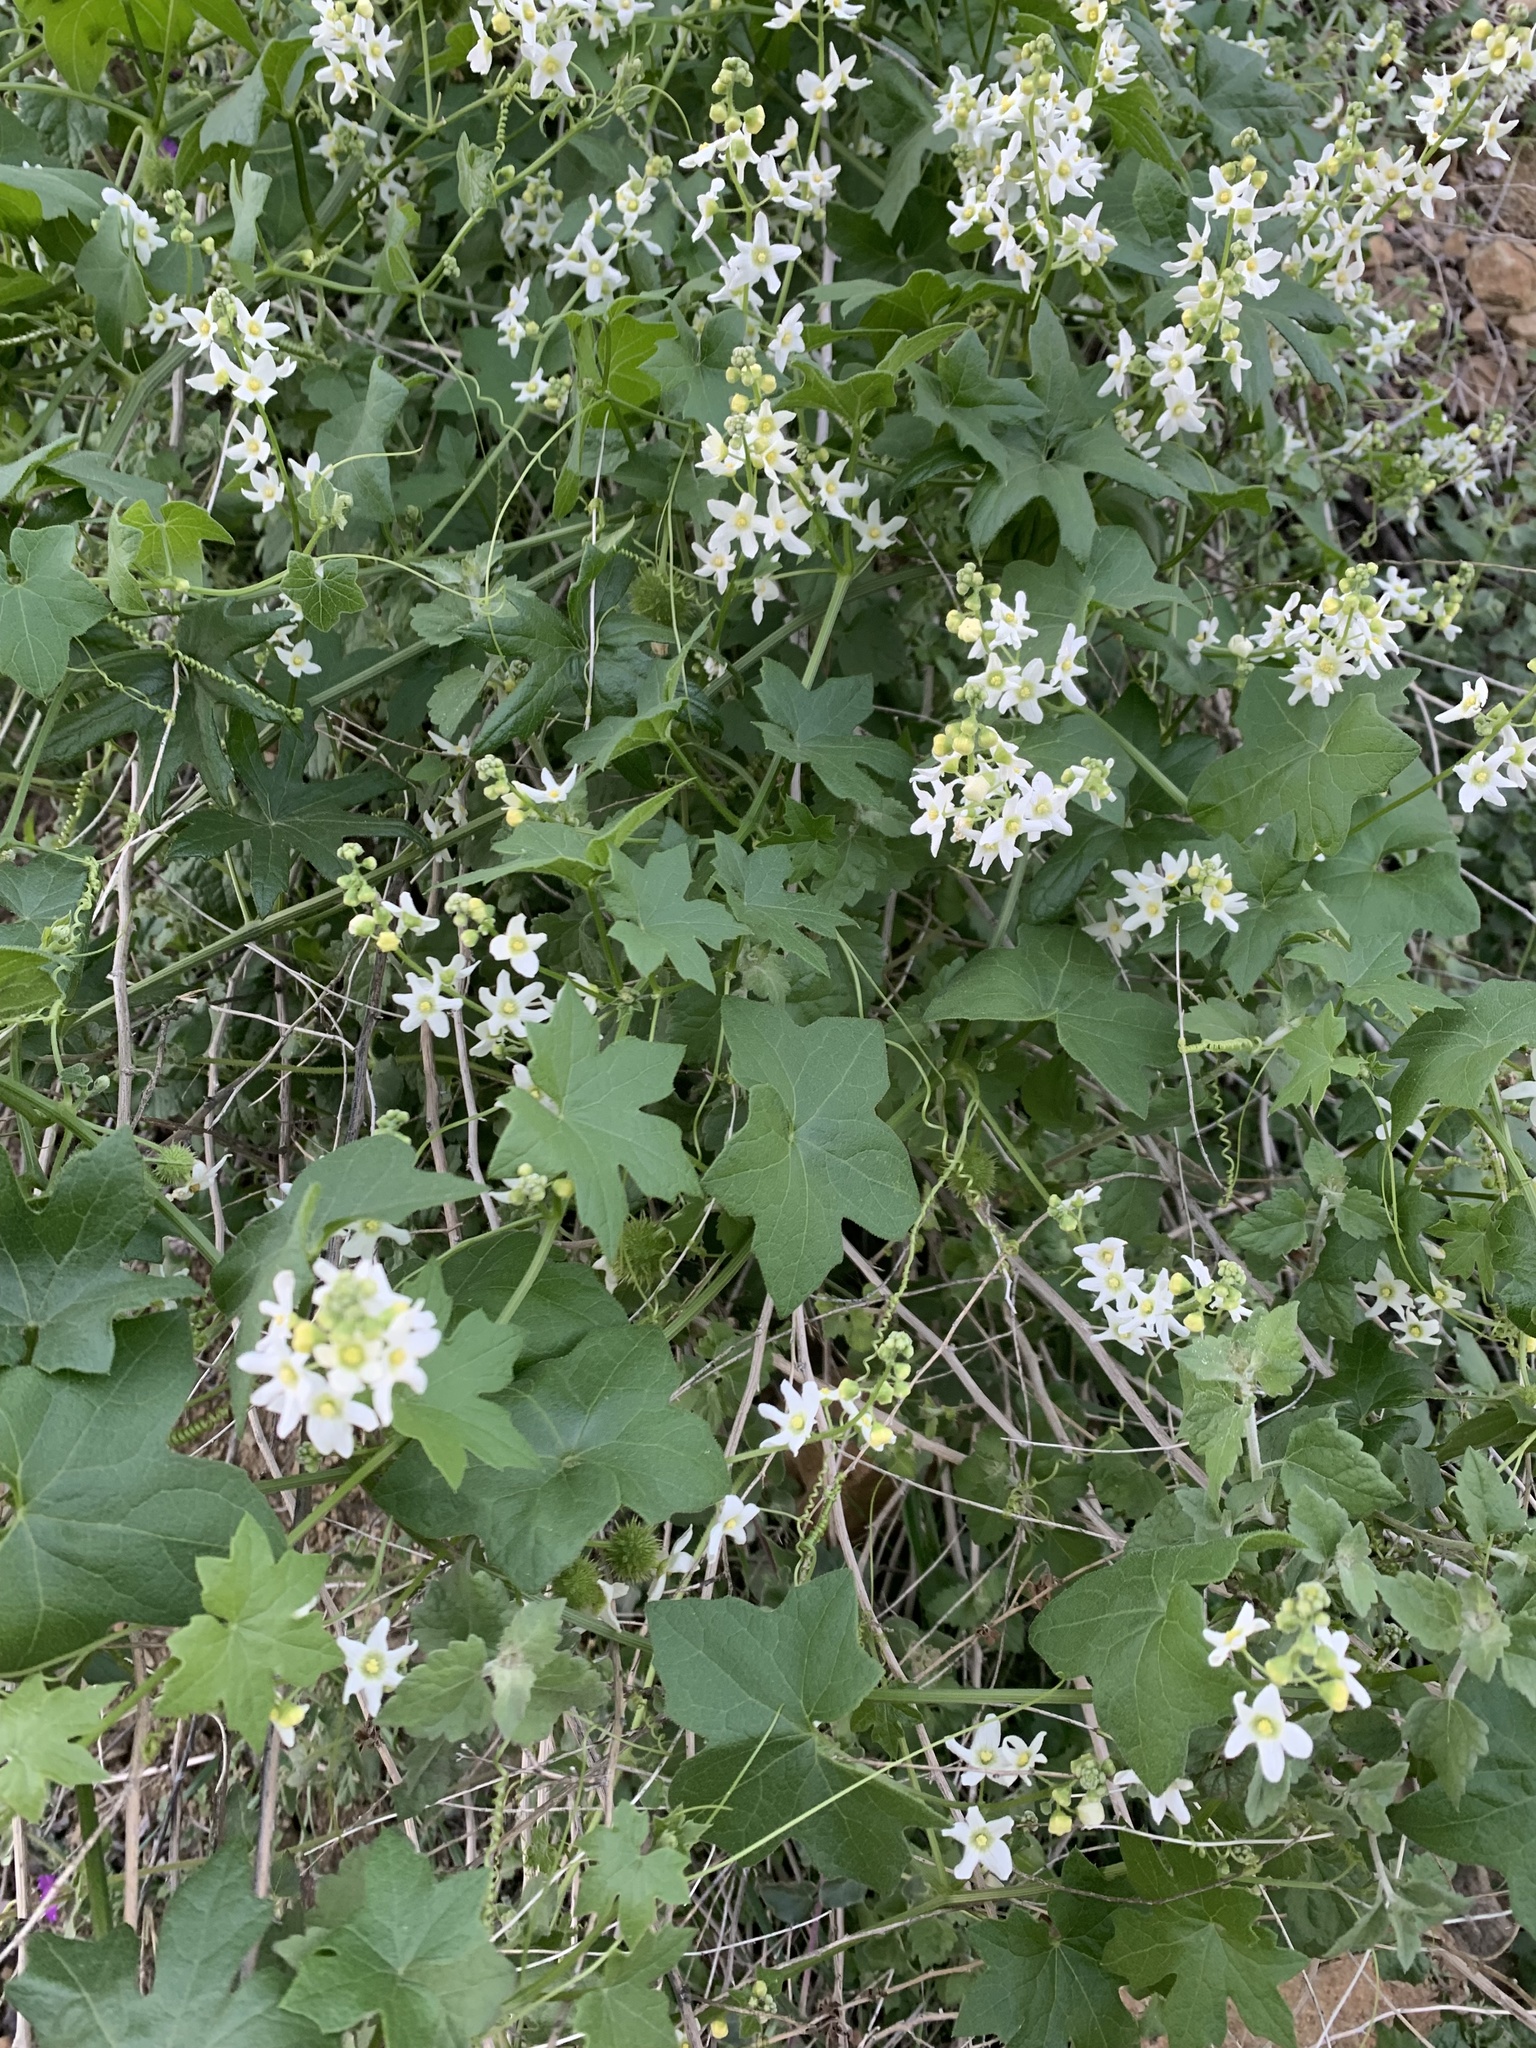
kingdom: Plantae
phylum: Tracheophyta
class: Magnoliopsida
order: Cucurbitales
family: Cucurbitaceae
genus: Marah
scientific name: Marah fabacea
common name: California manroot
